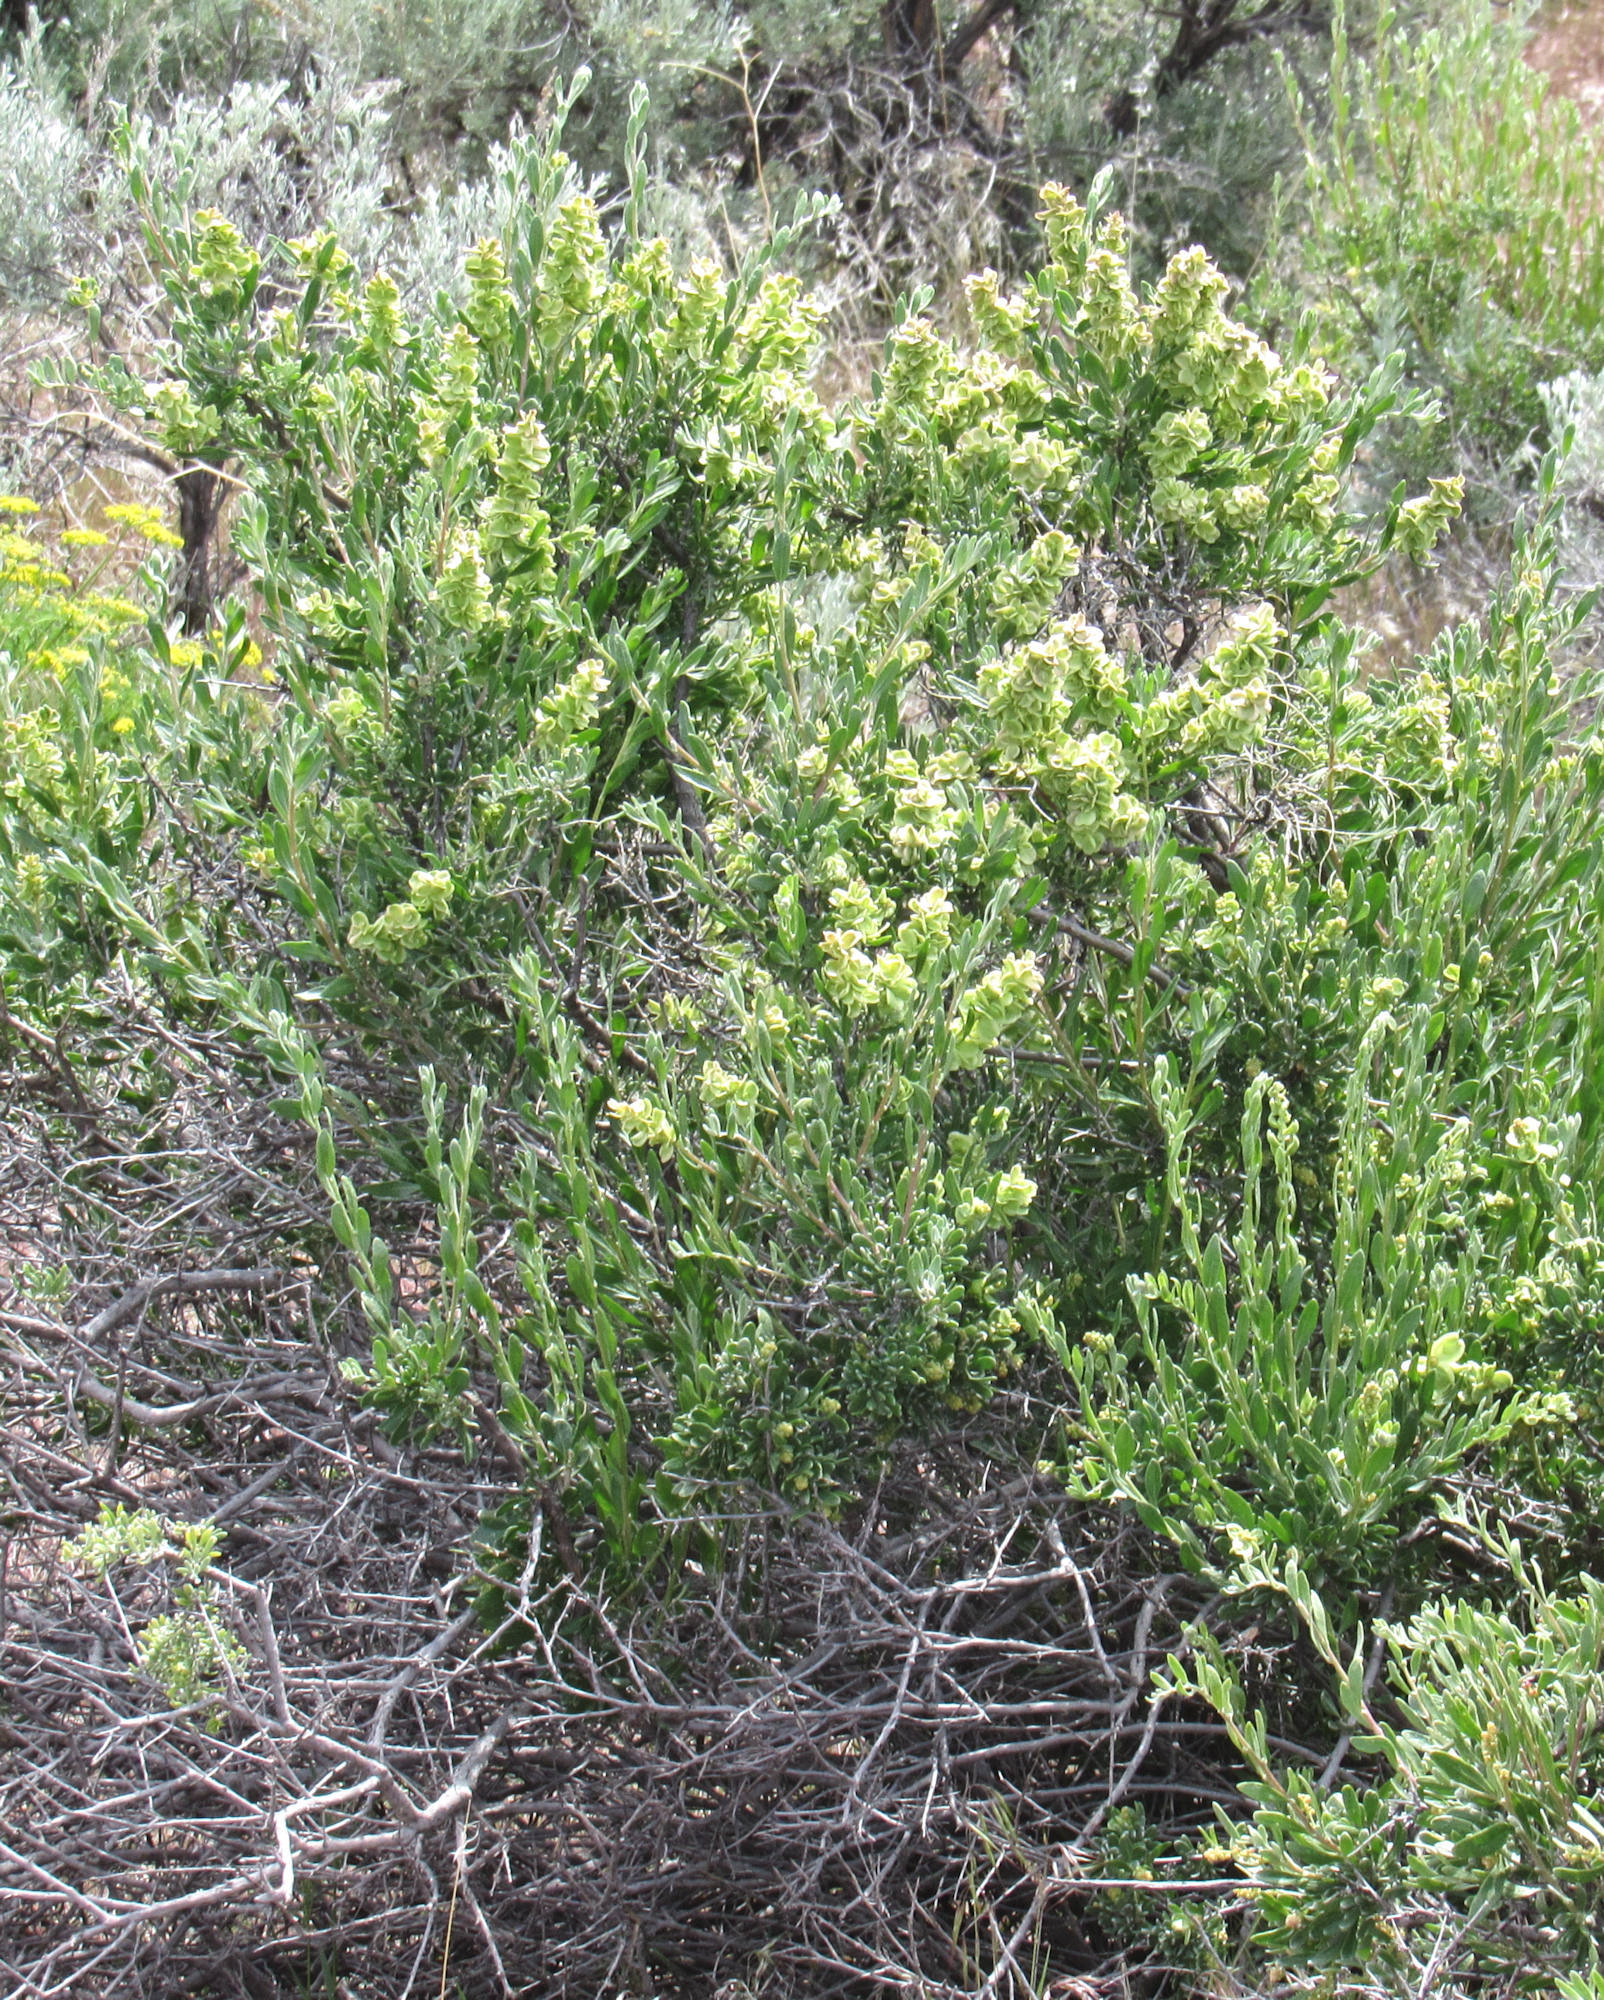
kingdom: Plantae
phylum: Tracheophyta
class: Magnoliopsida
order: Caryophyllales
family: Amaranthaceae
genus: Grayia
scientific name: Grayia spinosa
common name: Spiny hopsage
